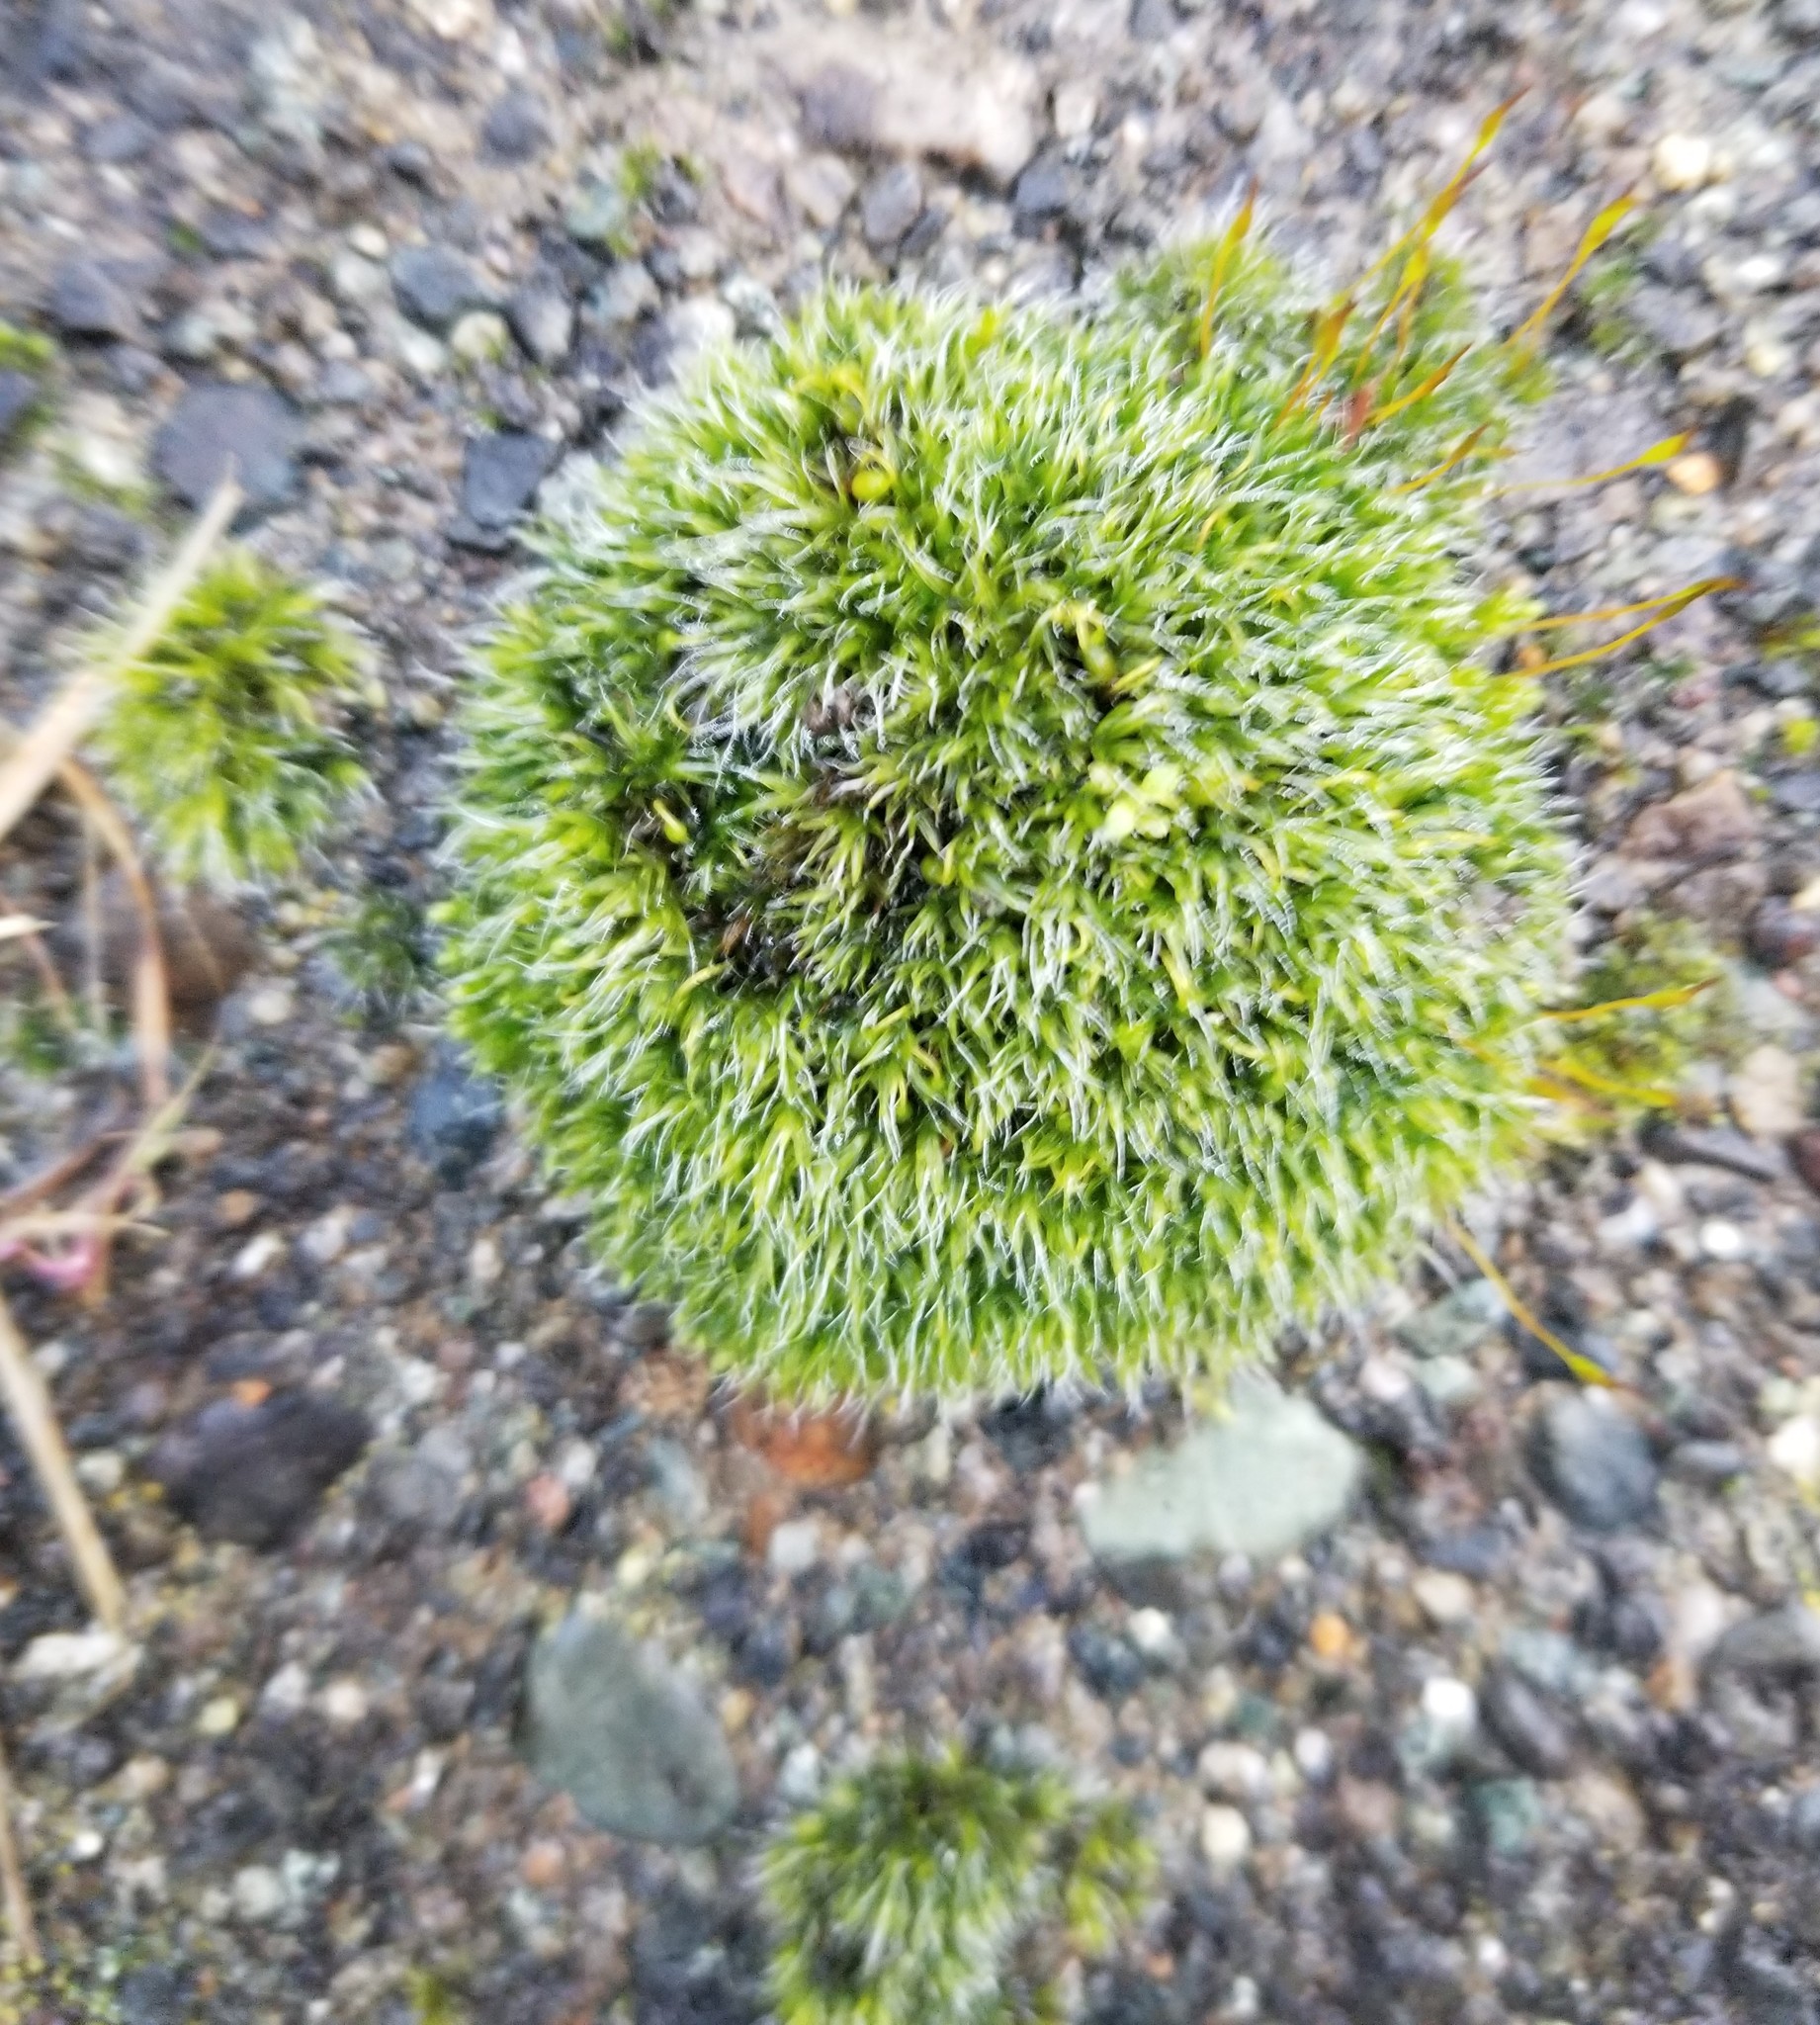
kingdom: Plantae
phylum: Bryophyta
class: Bryopsida
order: Grimmiales
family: Grimmiaceae
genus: Grimmia
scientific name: Grimmia pulvinata
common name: Grey-cushioned grimmia
